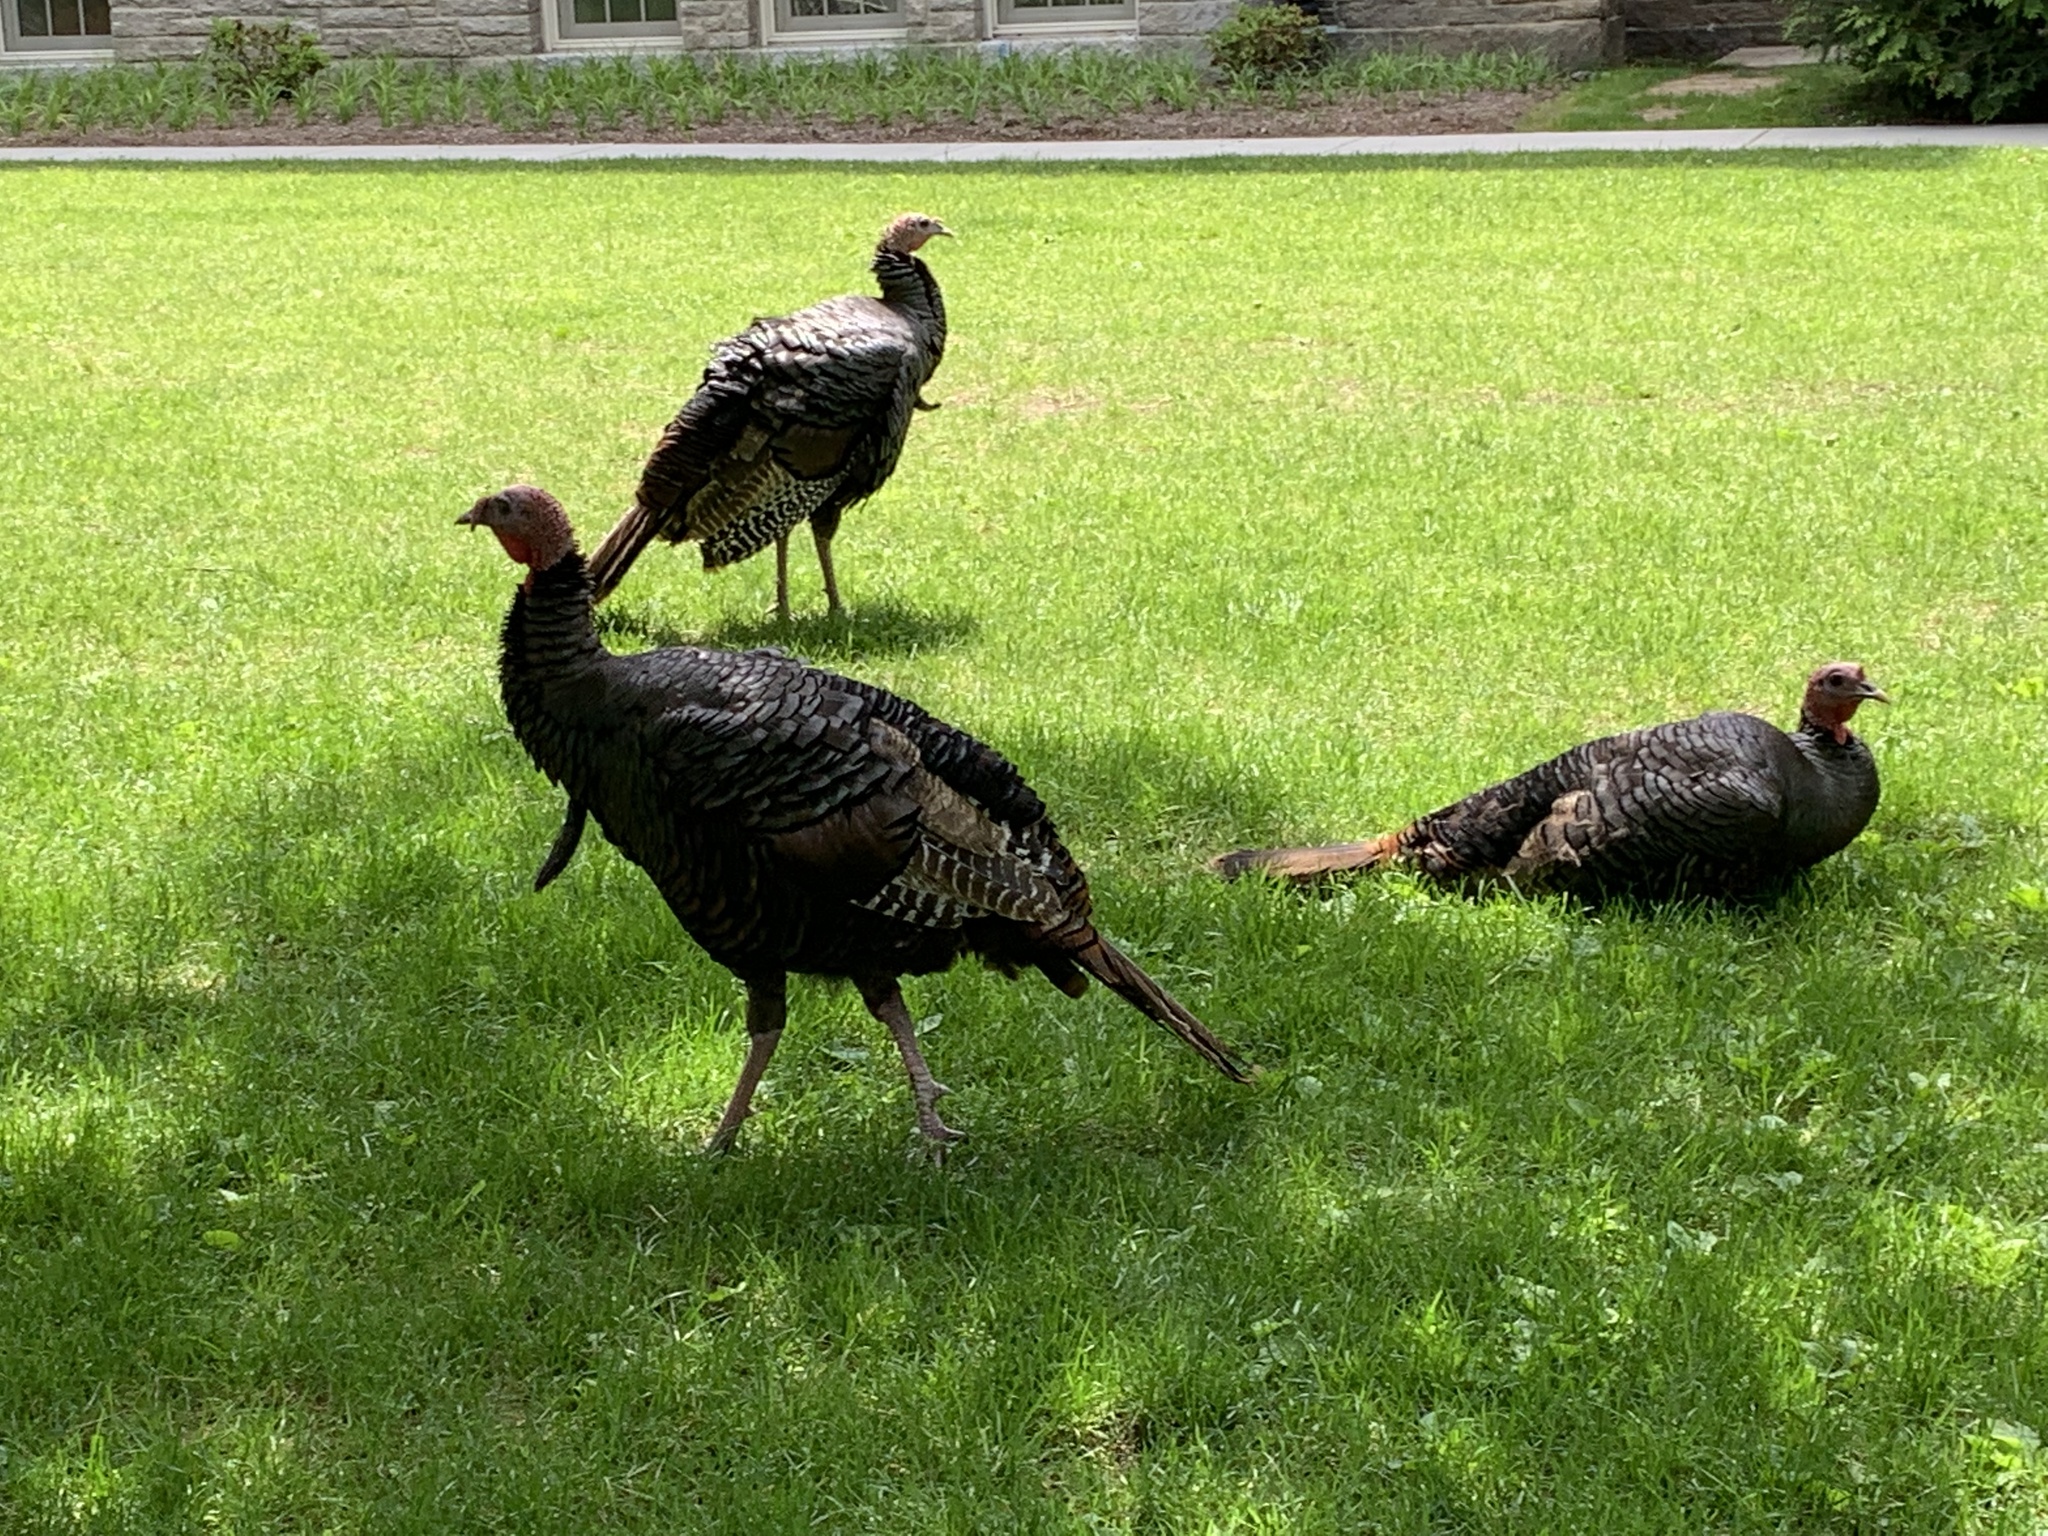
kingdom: Animalia
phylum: Chordata
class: Aves
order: Galliformes
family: Phasianidae
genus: Meleagris
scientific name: Meleagris gallopavo
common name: Wild turkey
